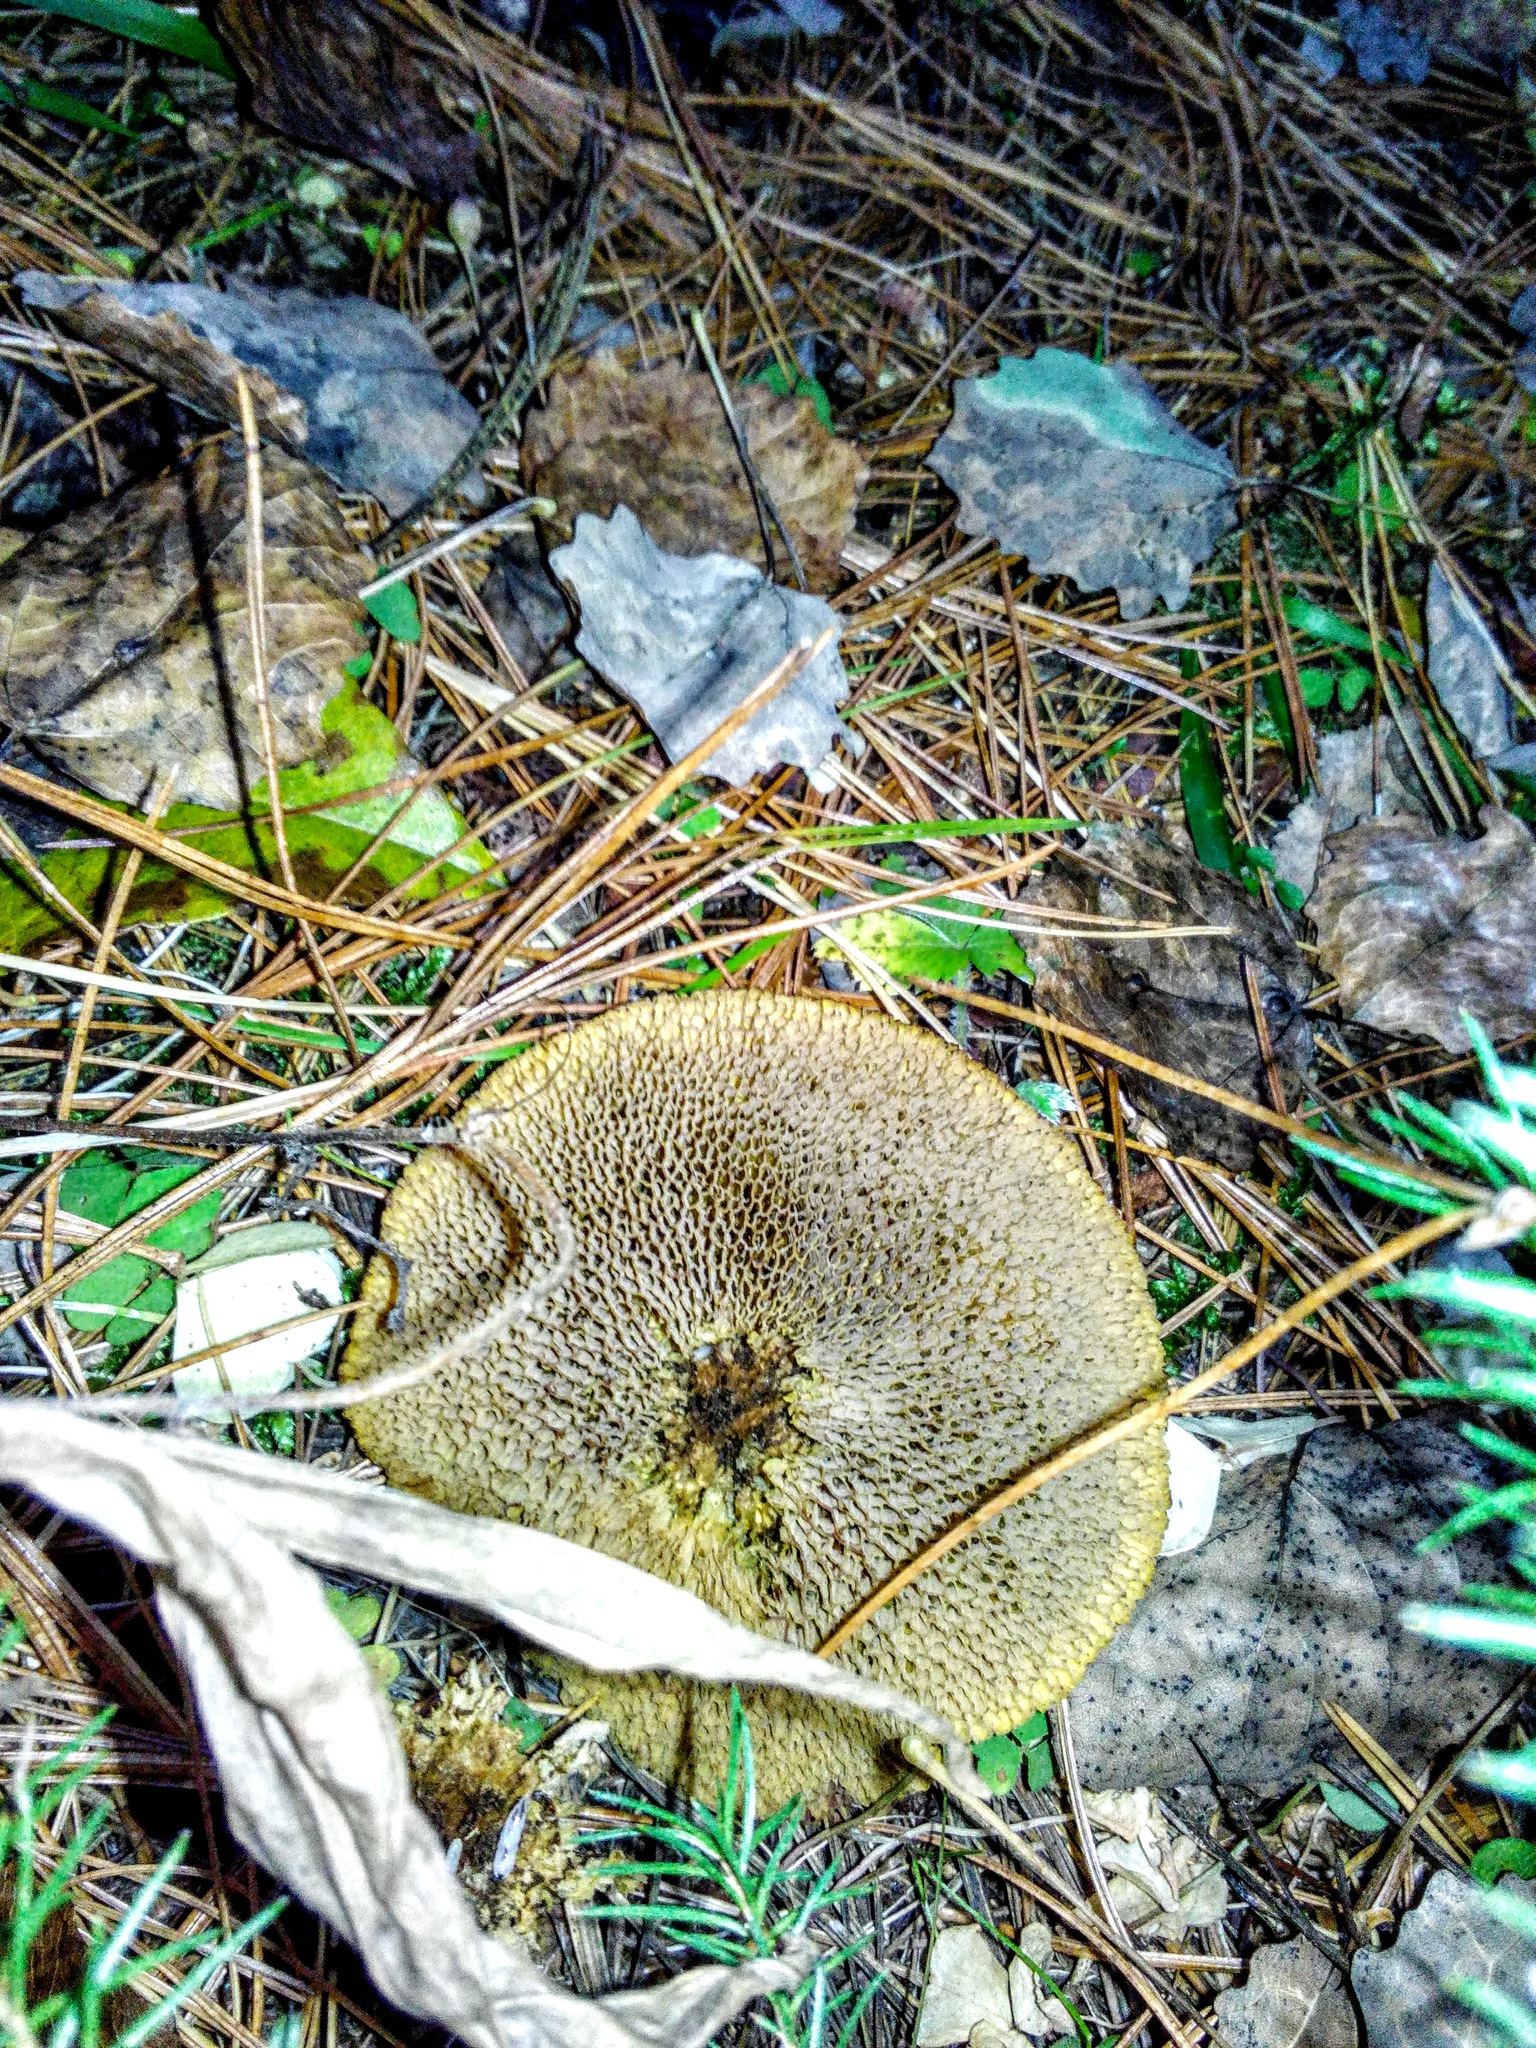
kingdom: Fungi
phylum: Basidiomycota
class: Agaricomycetes
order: Boletales
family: Suillaceae
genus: Suillus
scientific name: Suillus americanus
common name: Chicken fat mushroom
